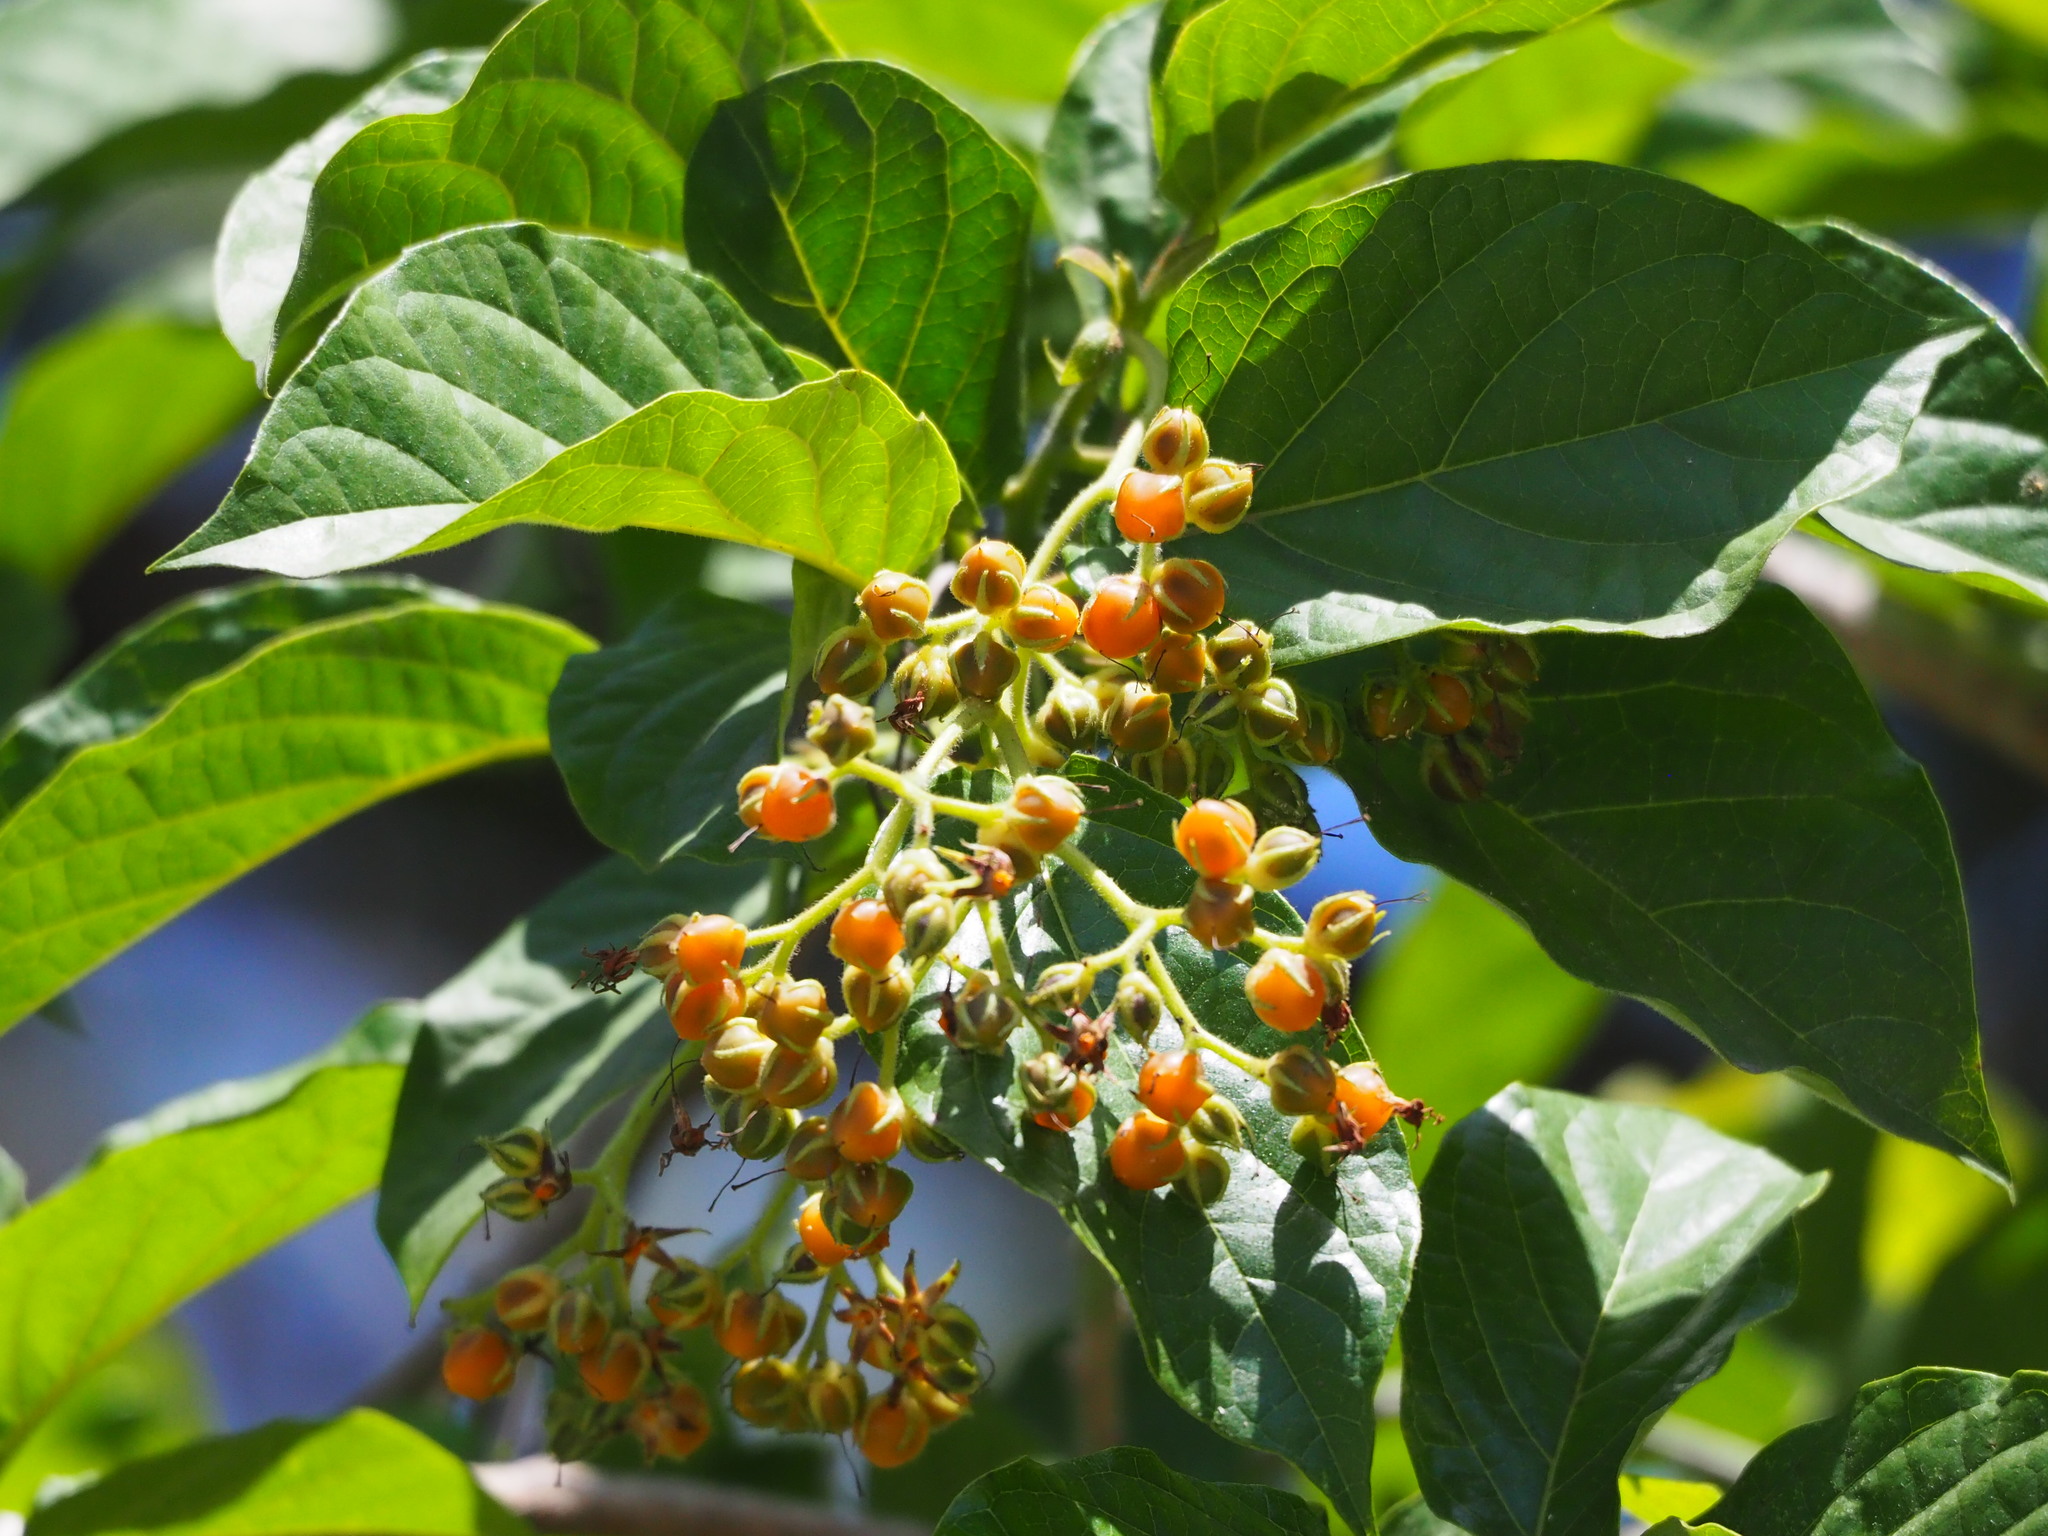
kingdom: Plantae
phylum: Tracheophyta
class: Magnoliopsida
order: Boraginales
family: Ehretiaceae
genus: Ehretia
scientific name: Ehretia resinosa
